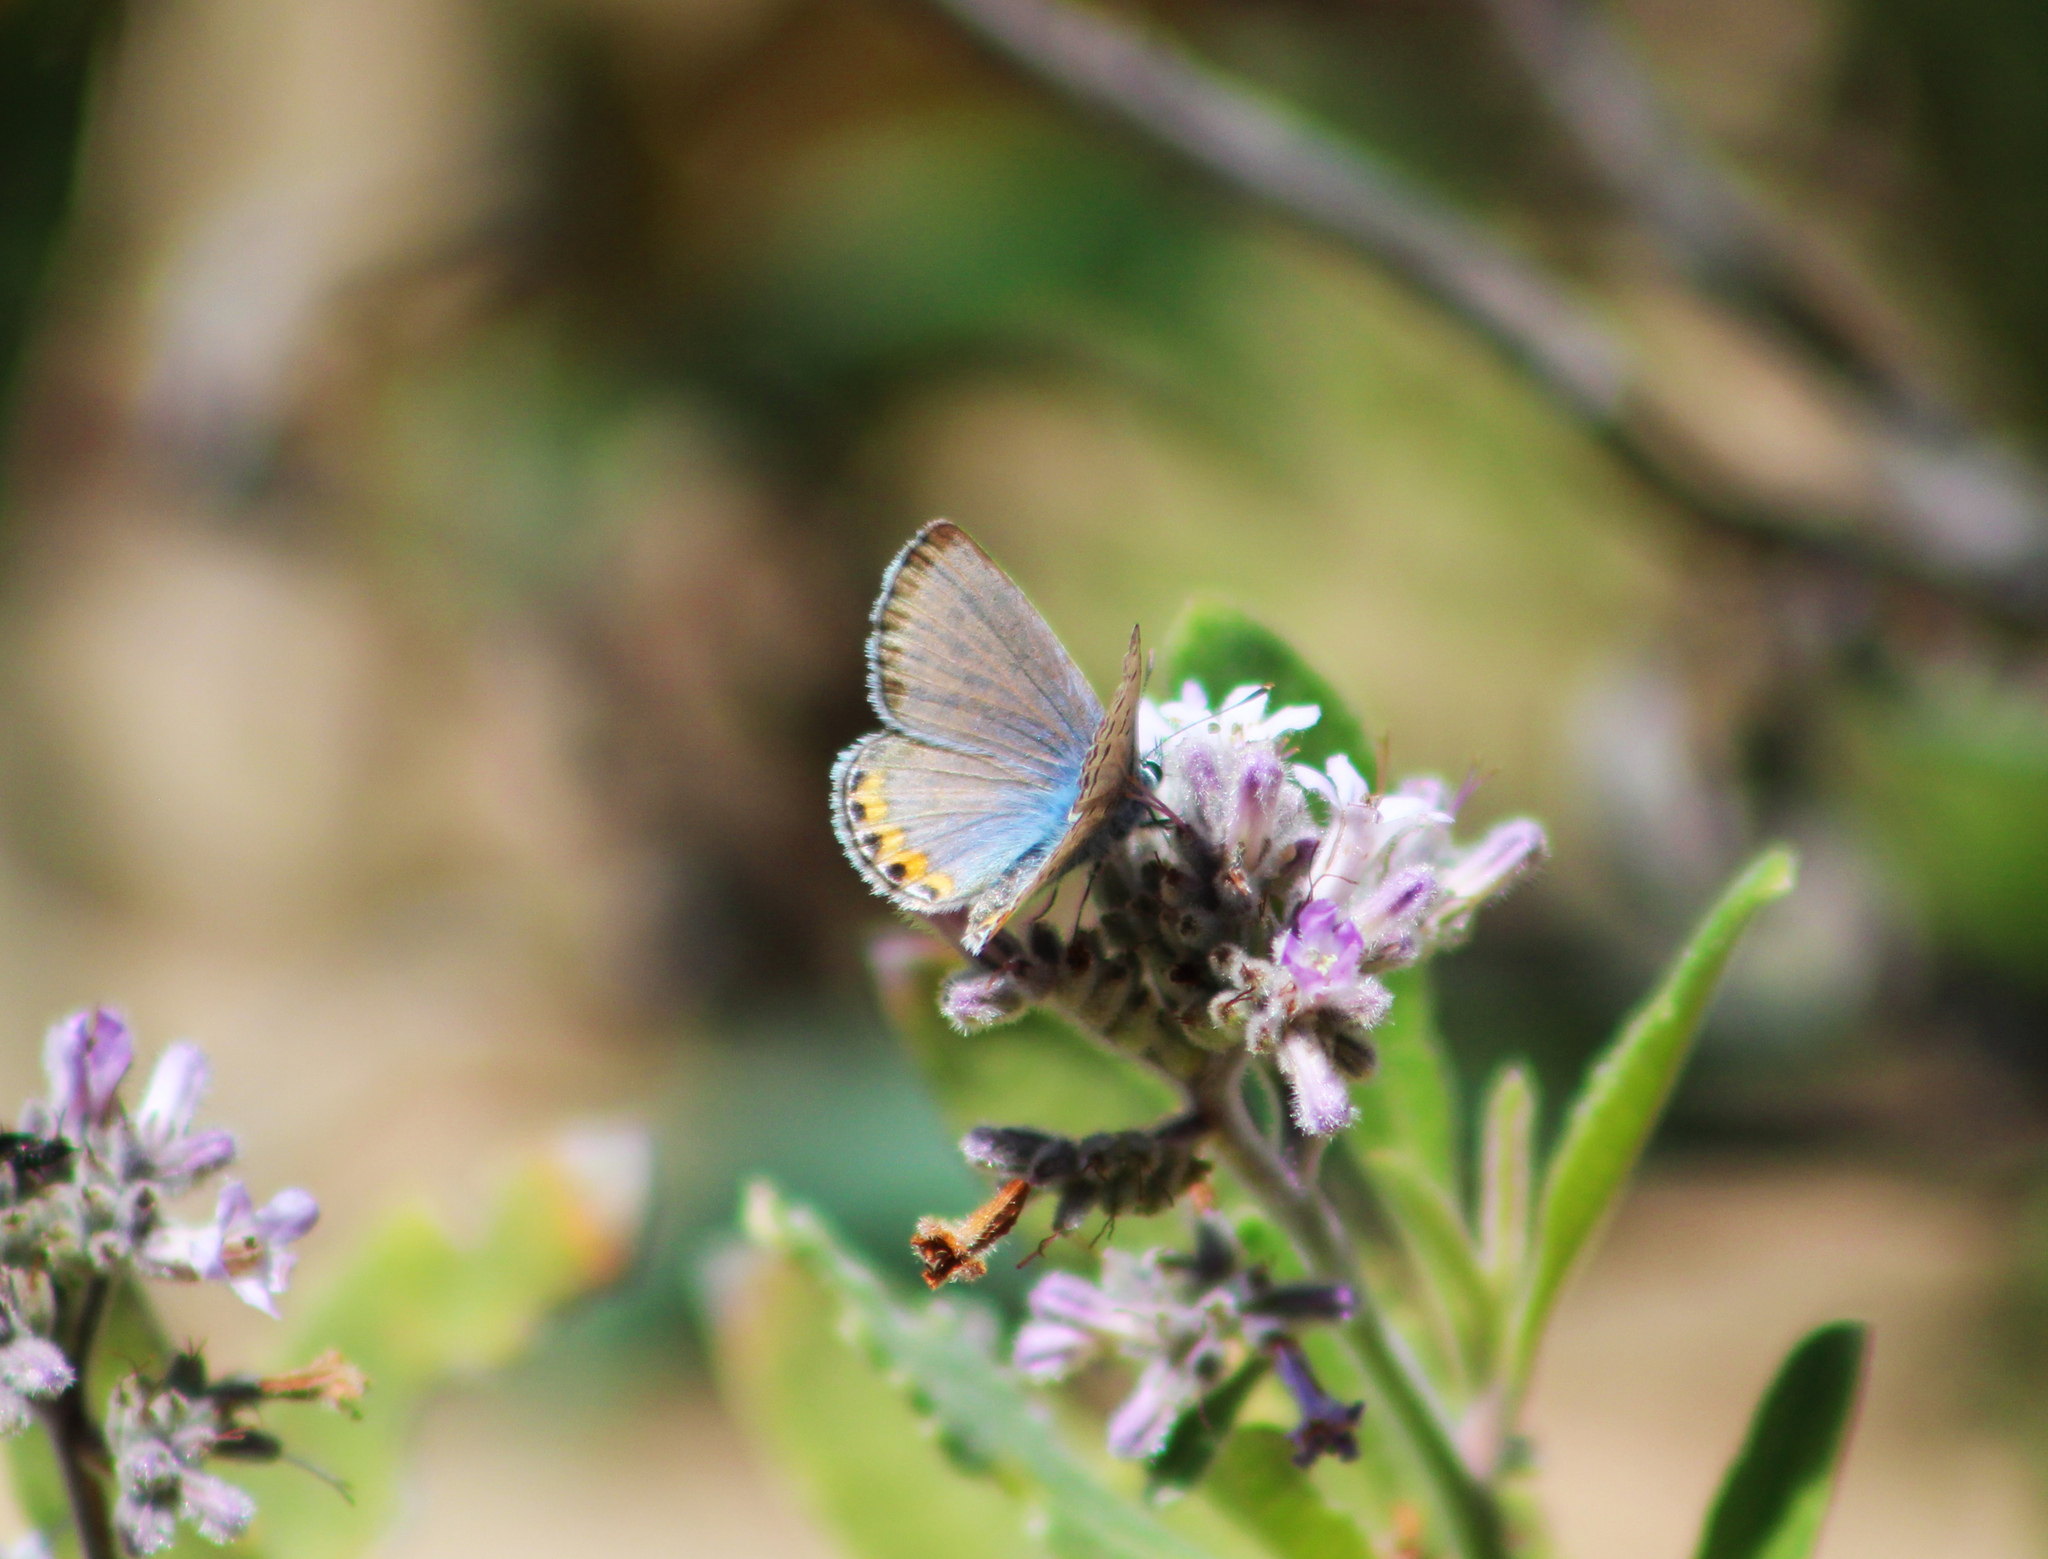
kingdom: Animalia
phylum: Arthropoda
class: Insecta
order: Lepidoptera
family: Lycaenidae
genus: Icaricia
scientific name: Icaricia
